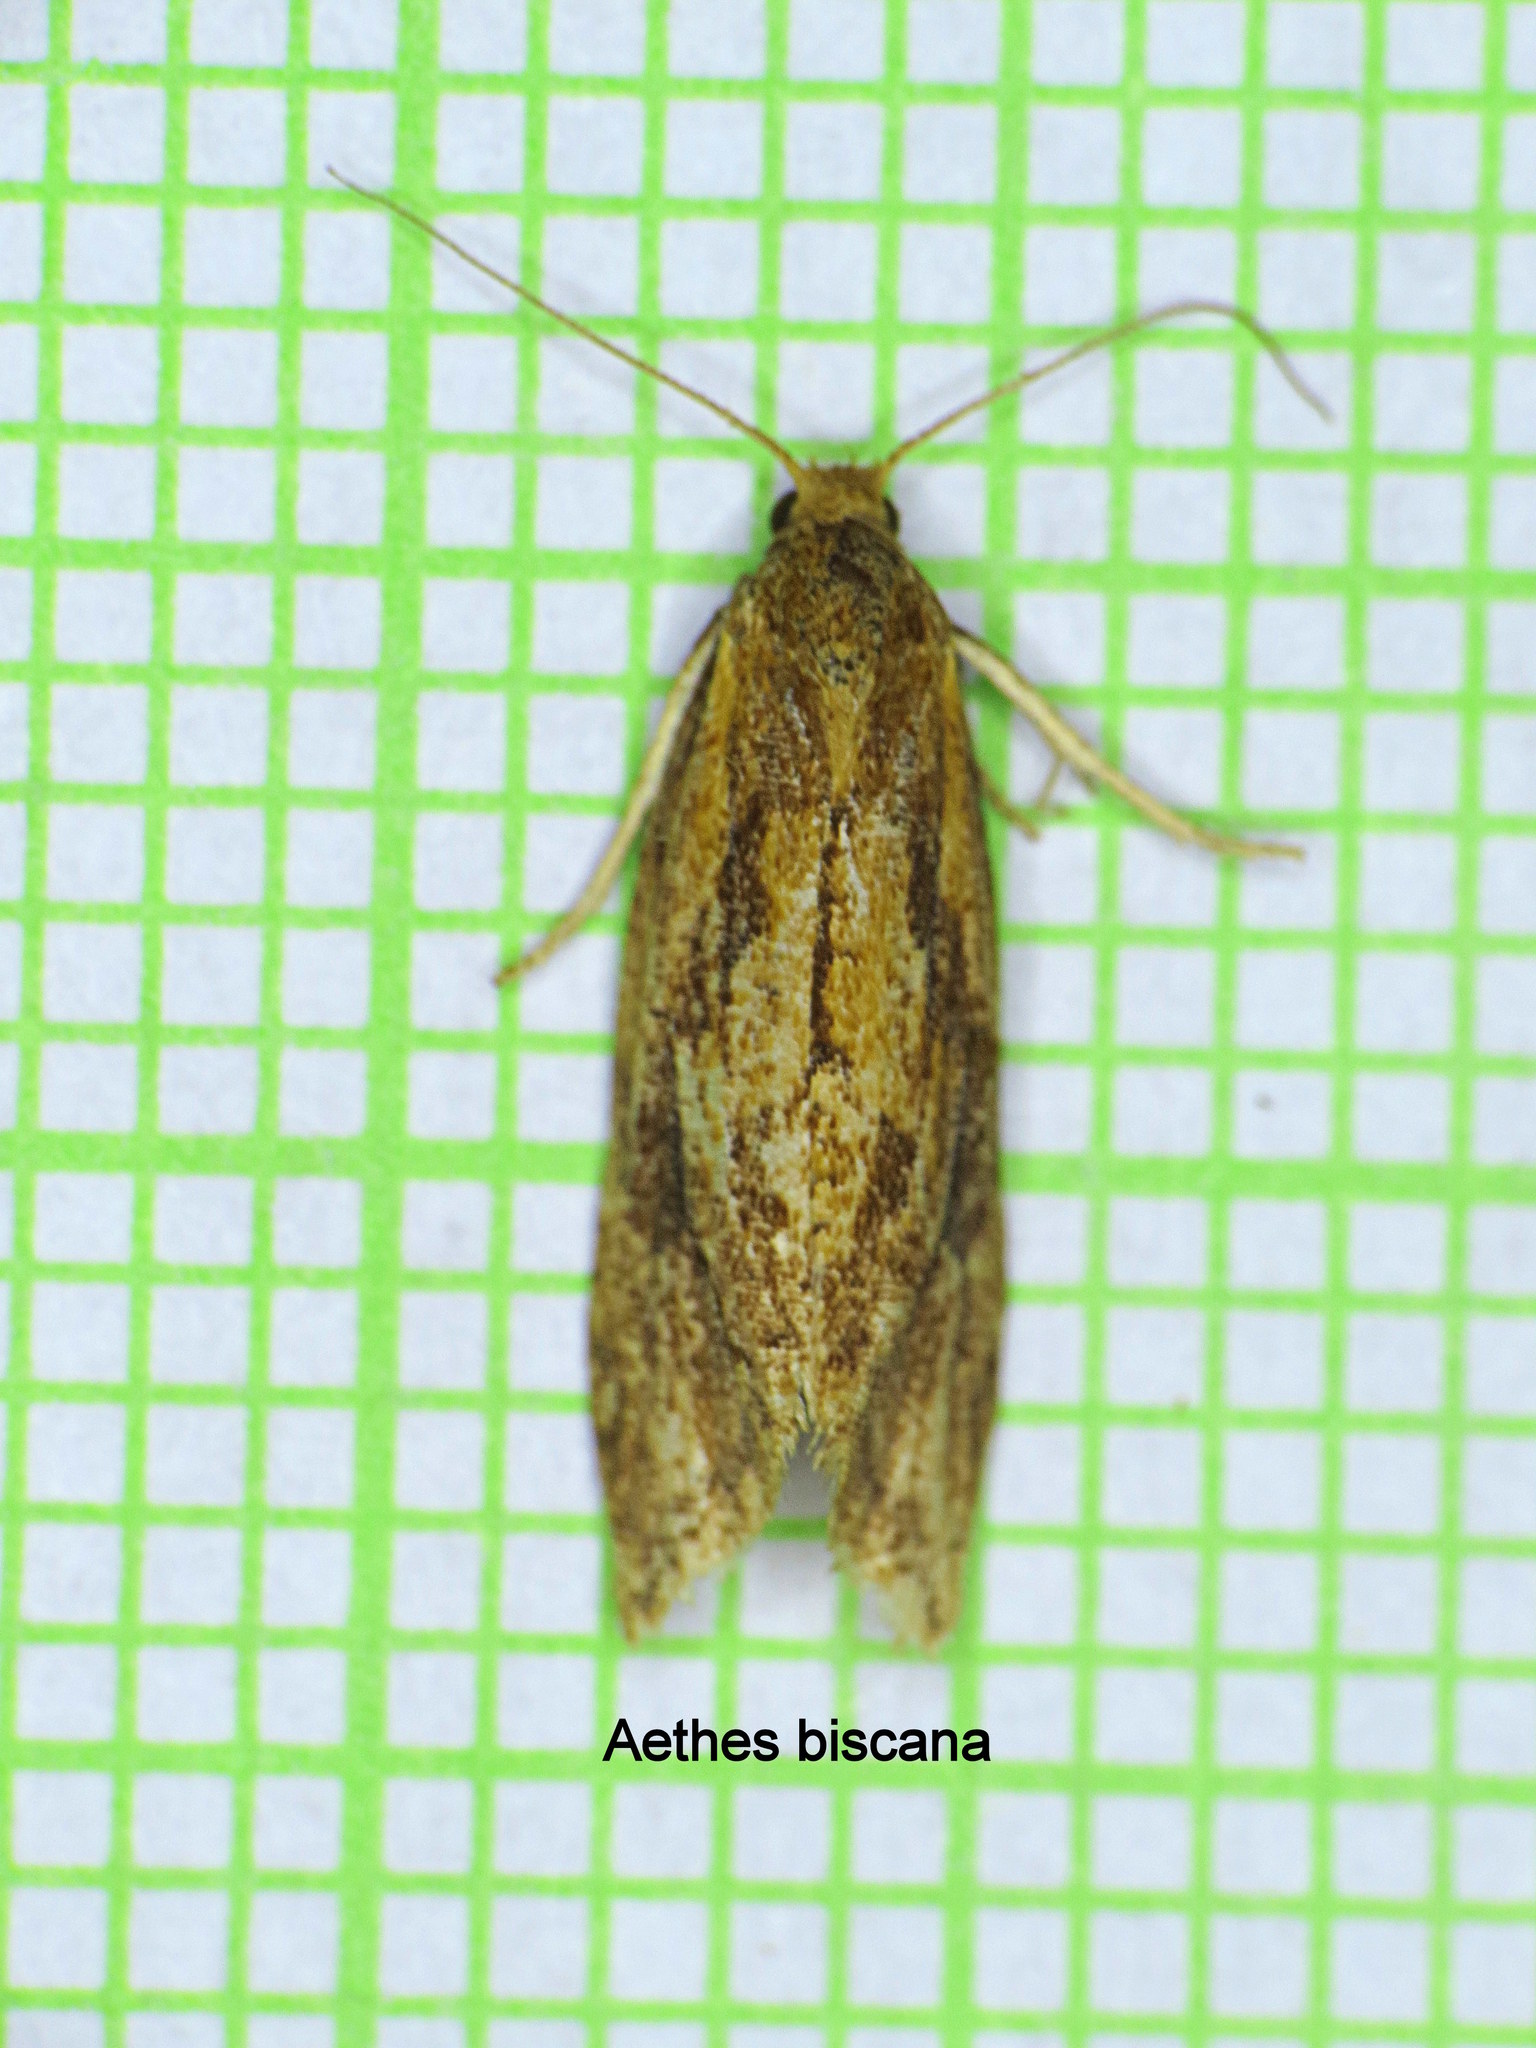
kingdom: Animalia
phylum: Arthropoda
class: Insecta
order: Lepidoptera
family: Tortricidae
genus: Aethes
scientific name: Aethes biscana
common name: Reddish aethes
